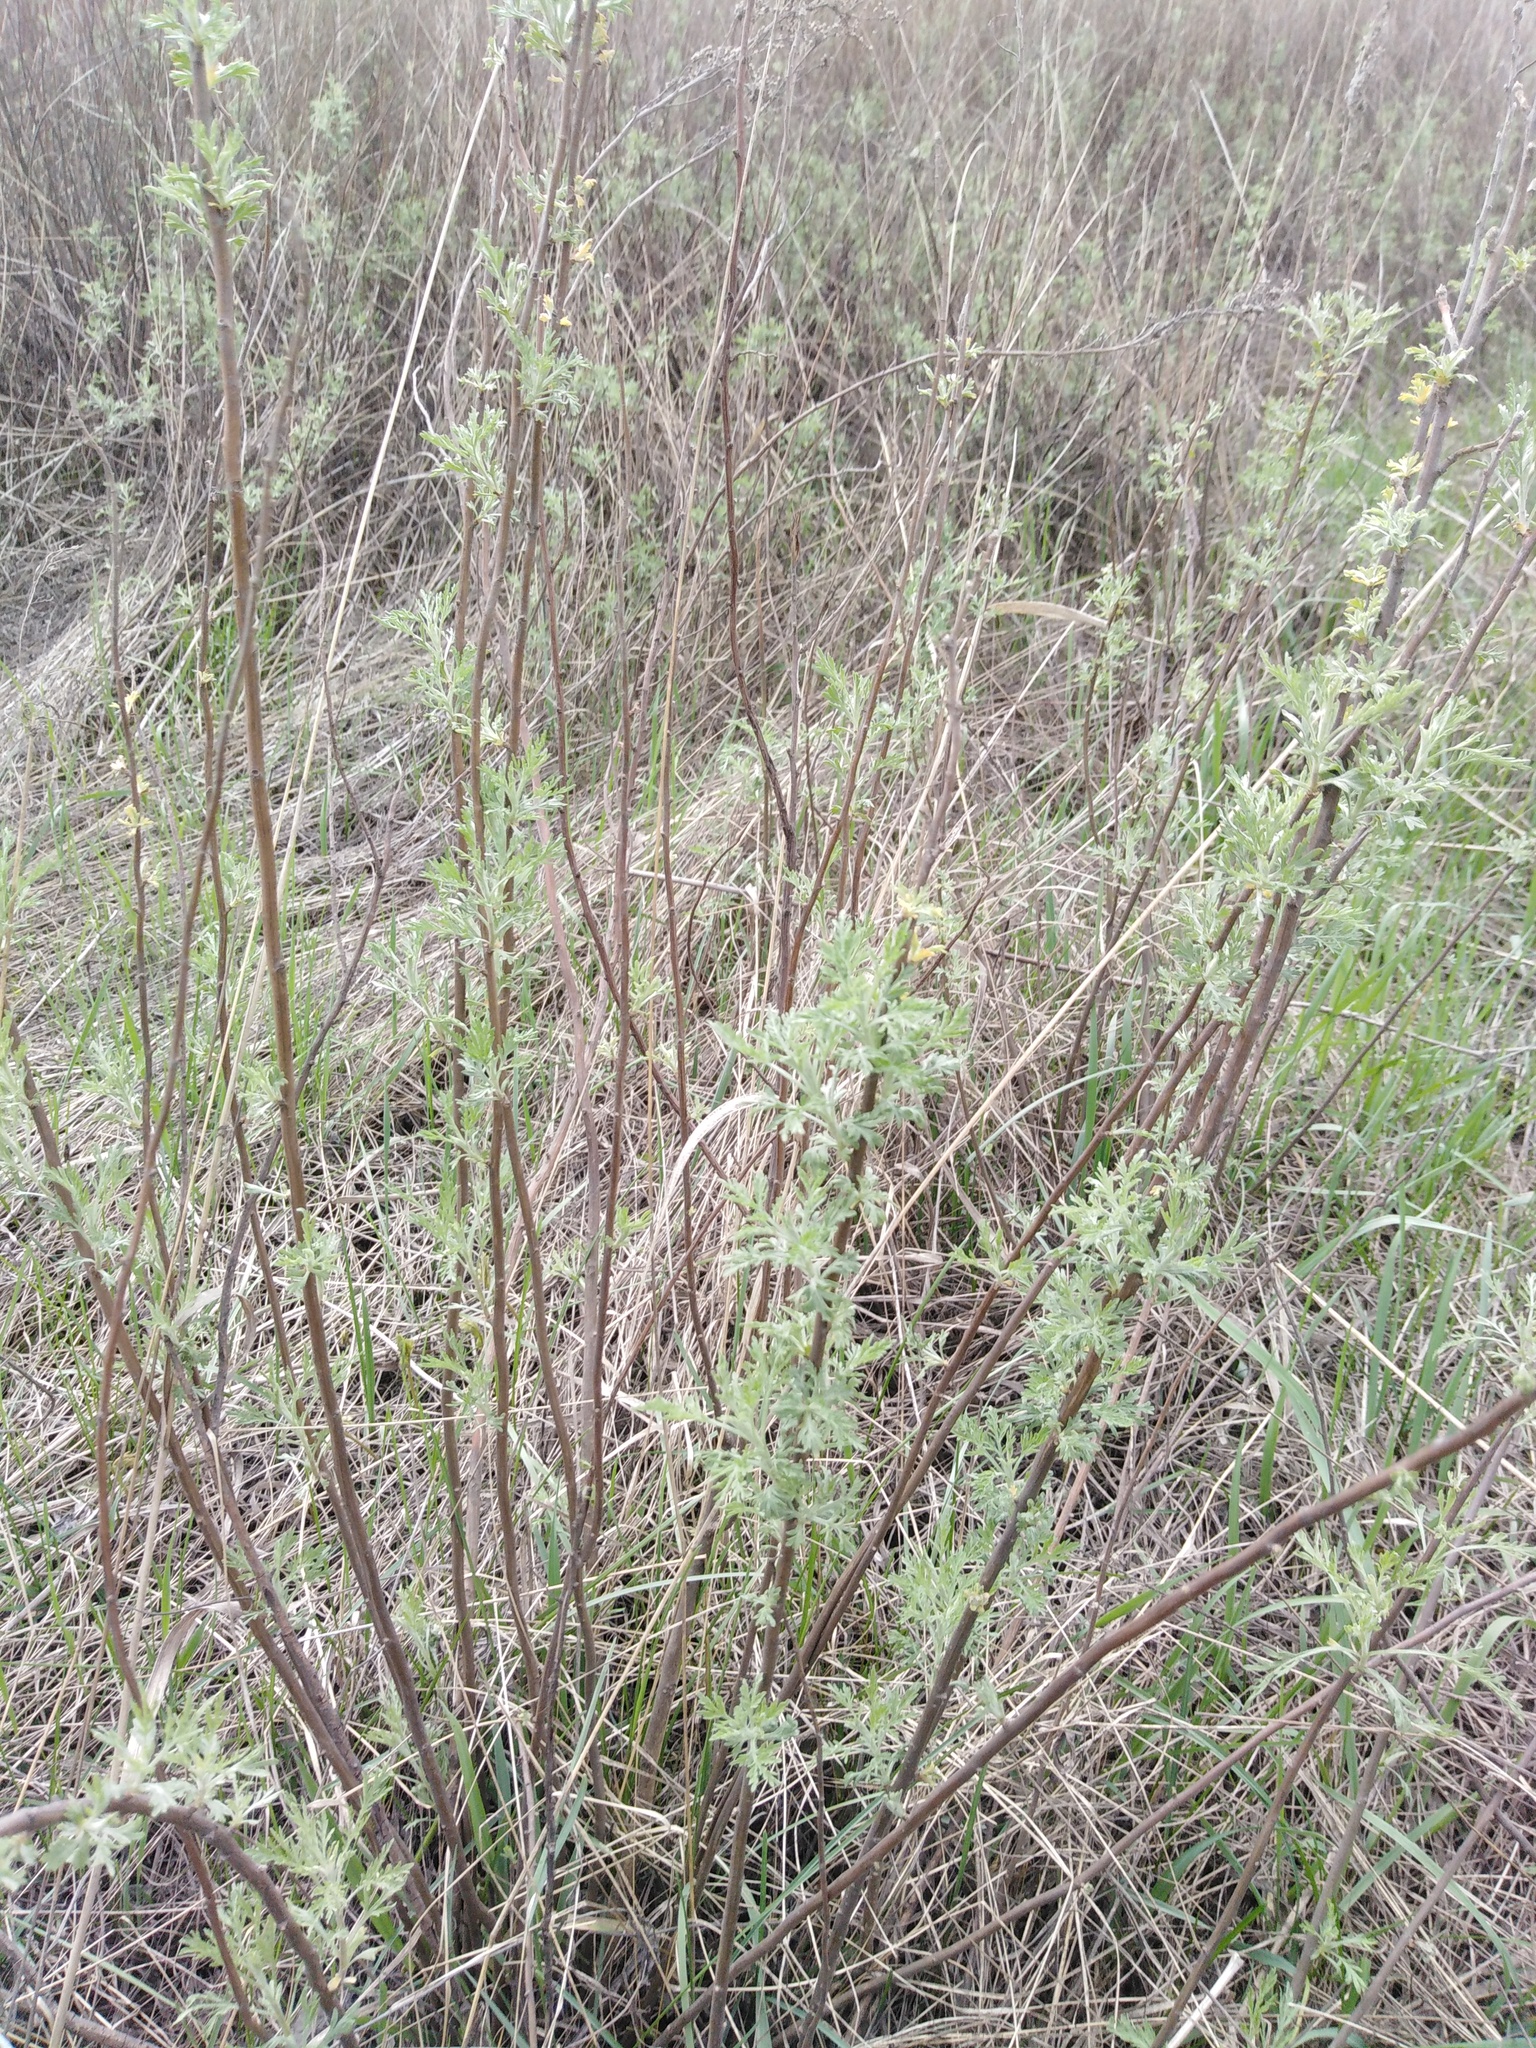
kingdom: Plantae
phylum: Tracheophyta
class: Magnoliopsida
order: Asterales
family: Asteraceae
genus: Artemisia
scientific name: Artemisia abrotanum
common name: Southernwood
